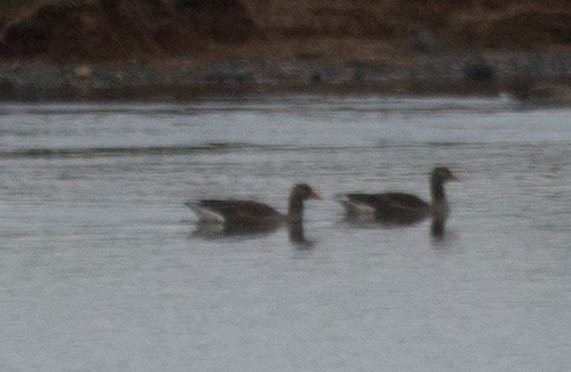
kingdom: Animalia
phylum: Chordata
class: Aves
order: Anseriformes
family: Anatidae
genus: Anser
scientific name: Anser anser
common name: Greylag goose
